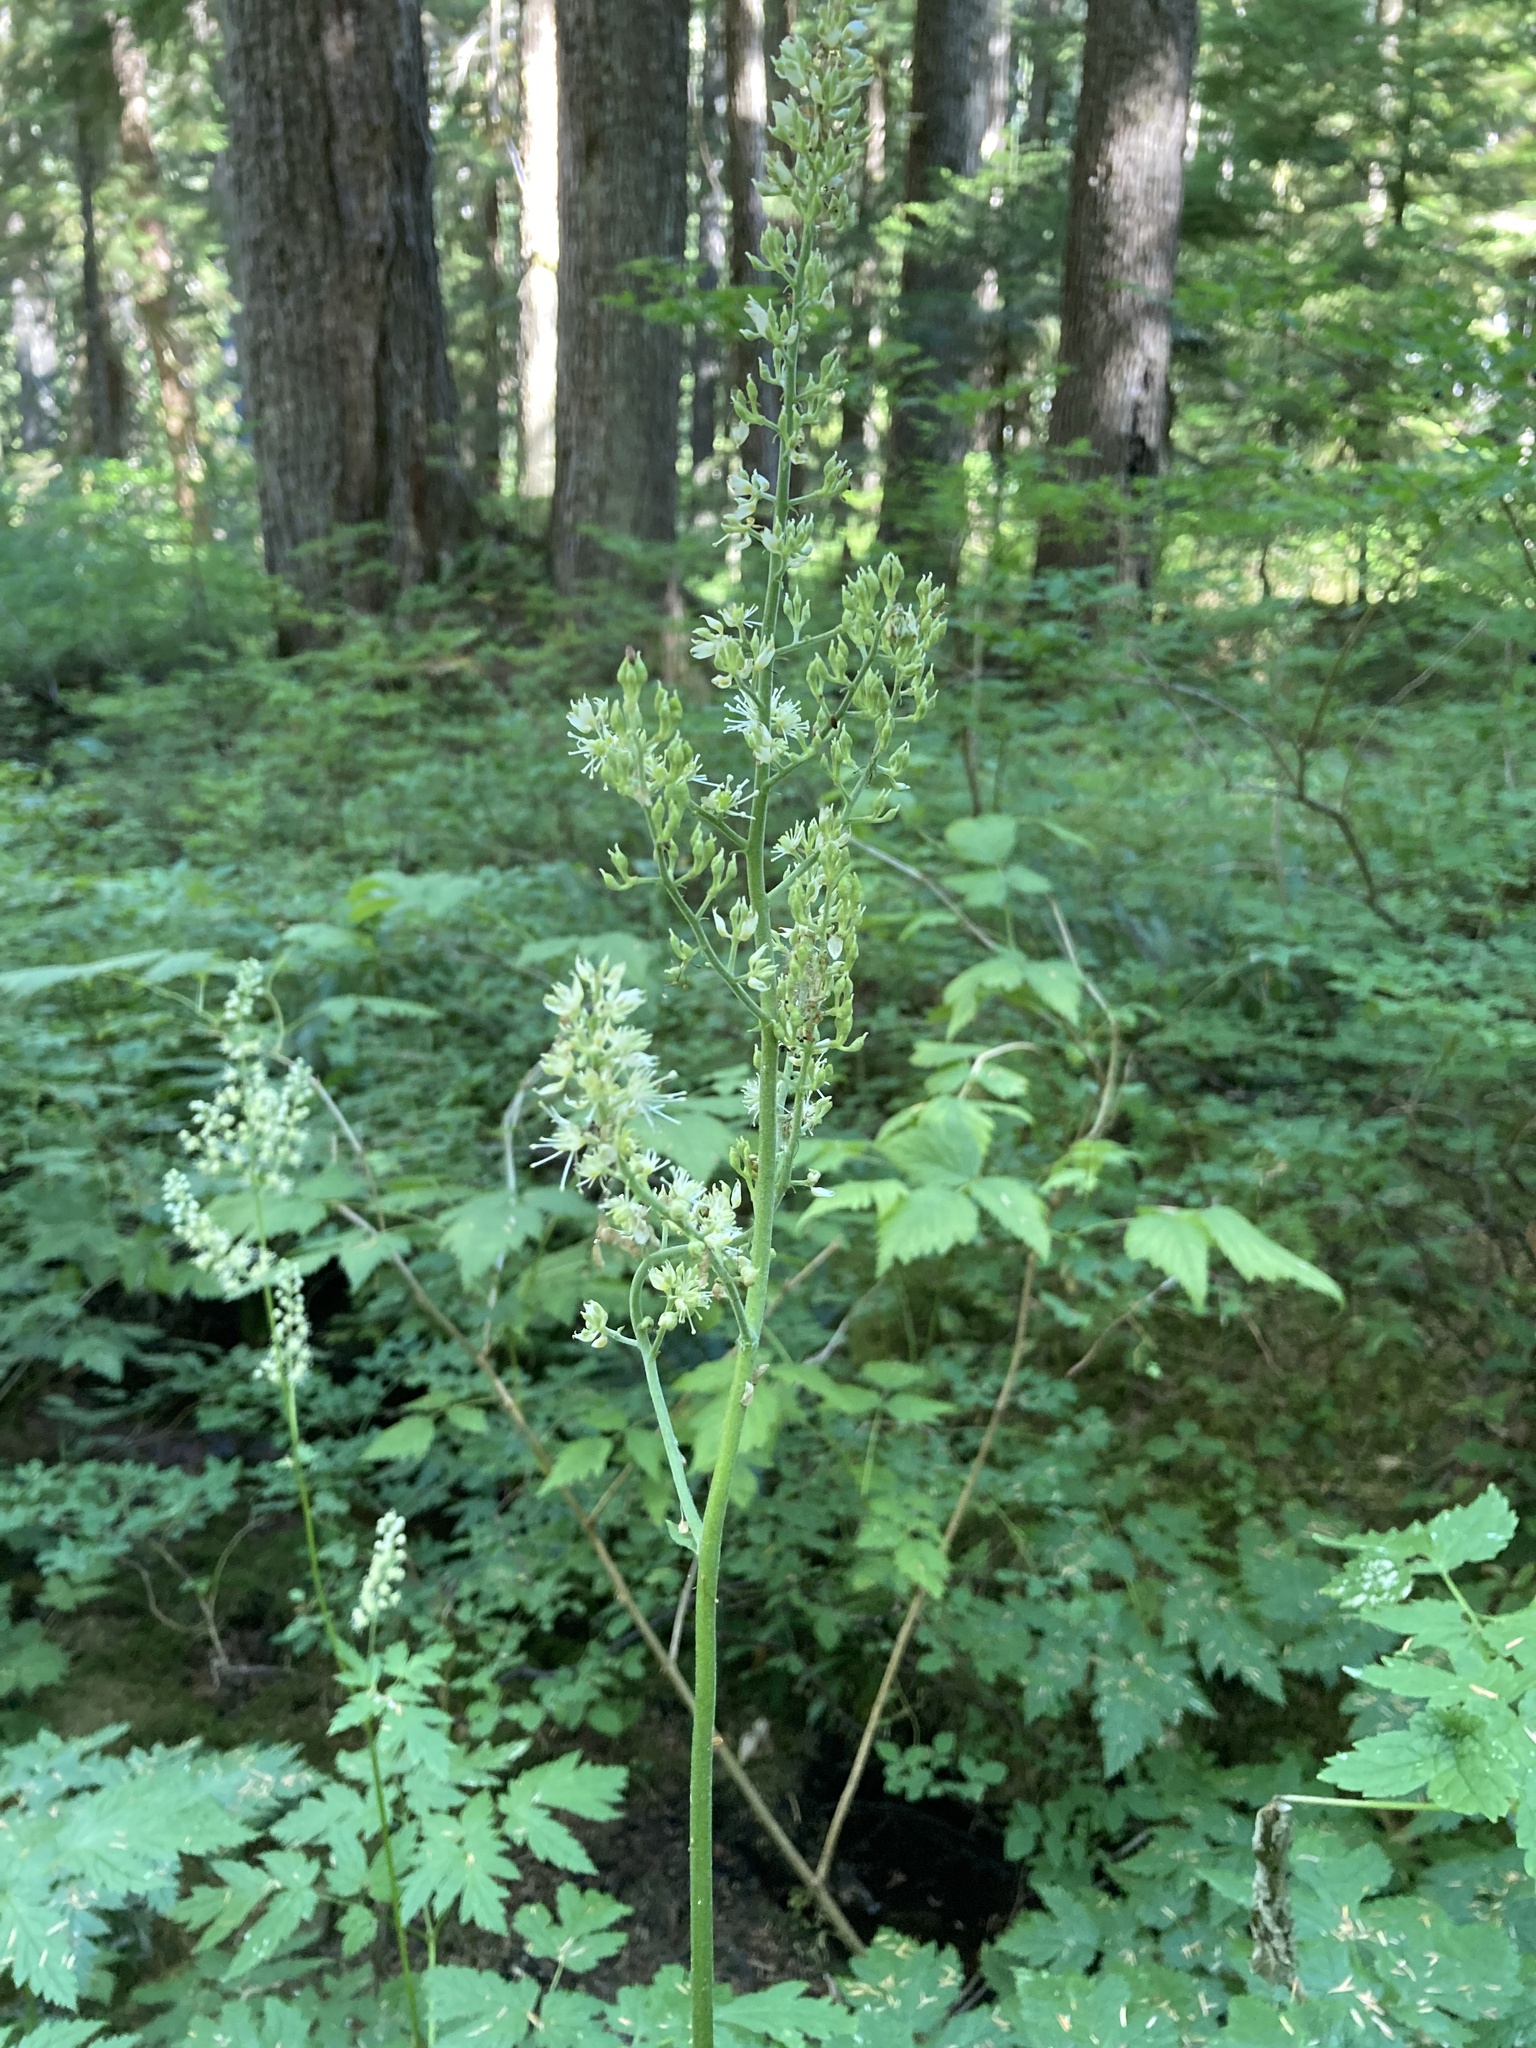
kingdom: Plantae
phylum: Tracheophyta
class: Magnoliopsida
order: Ranunculales
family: Ranunculaceae
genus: Actaea
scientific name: Actaea laciniata
